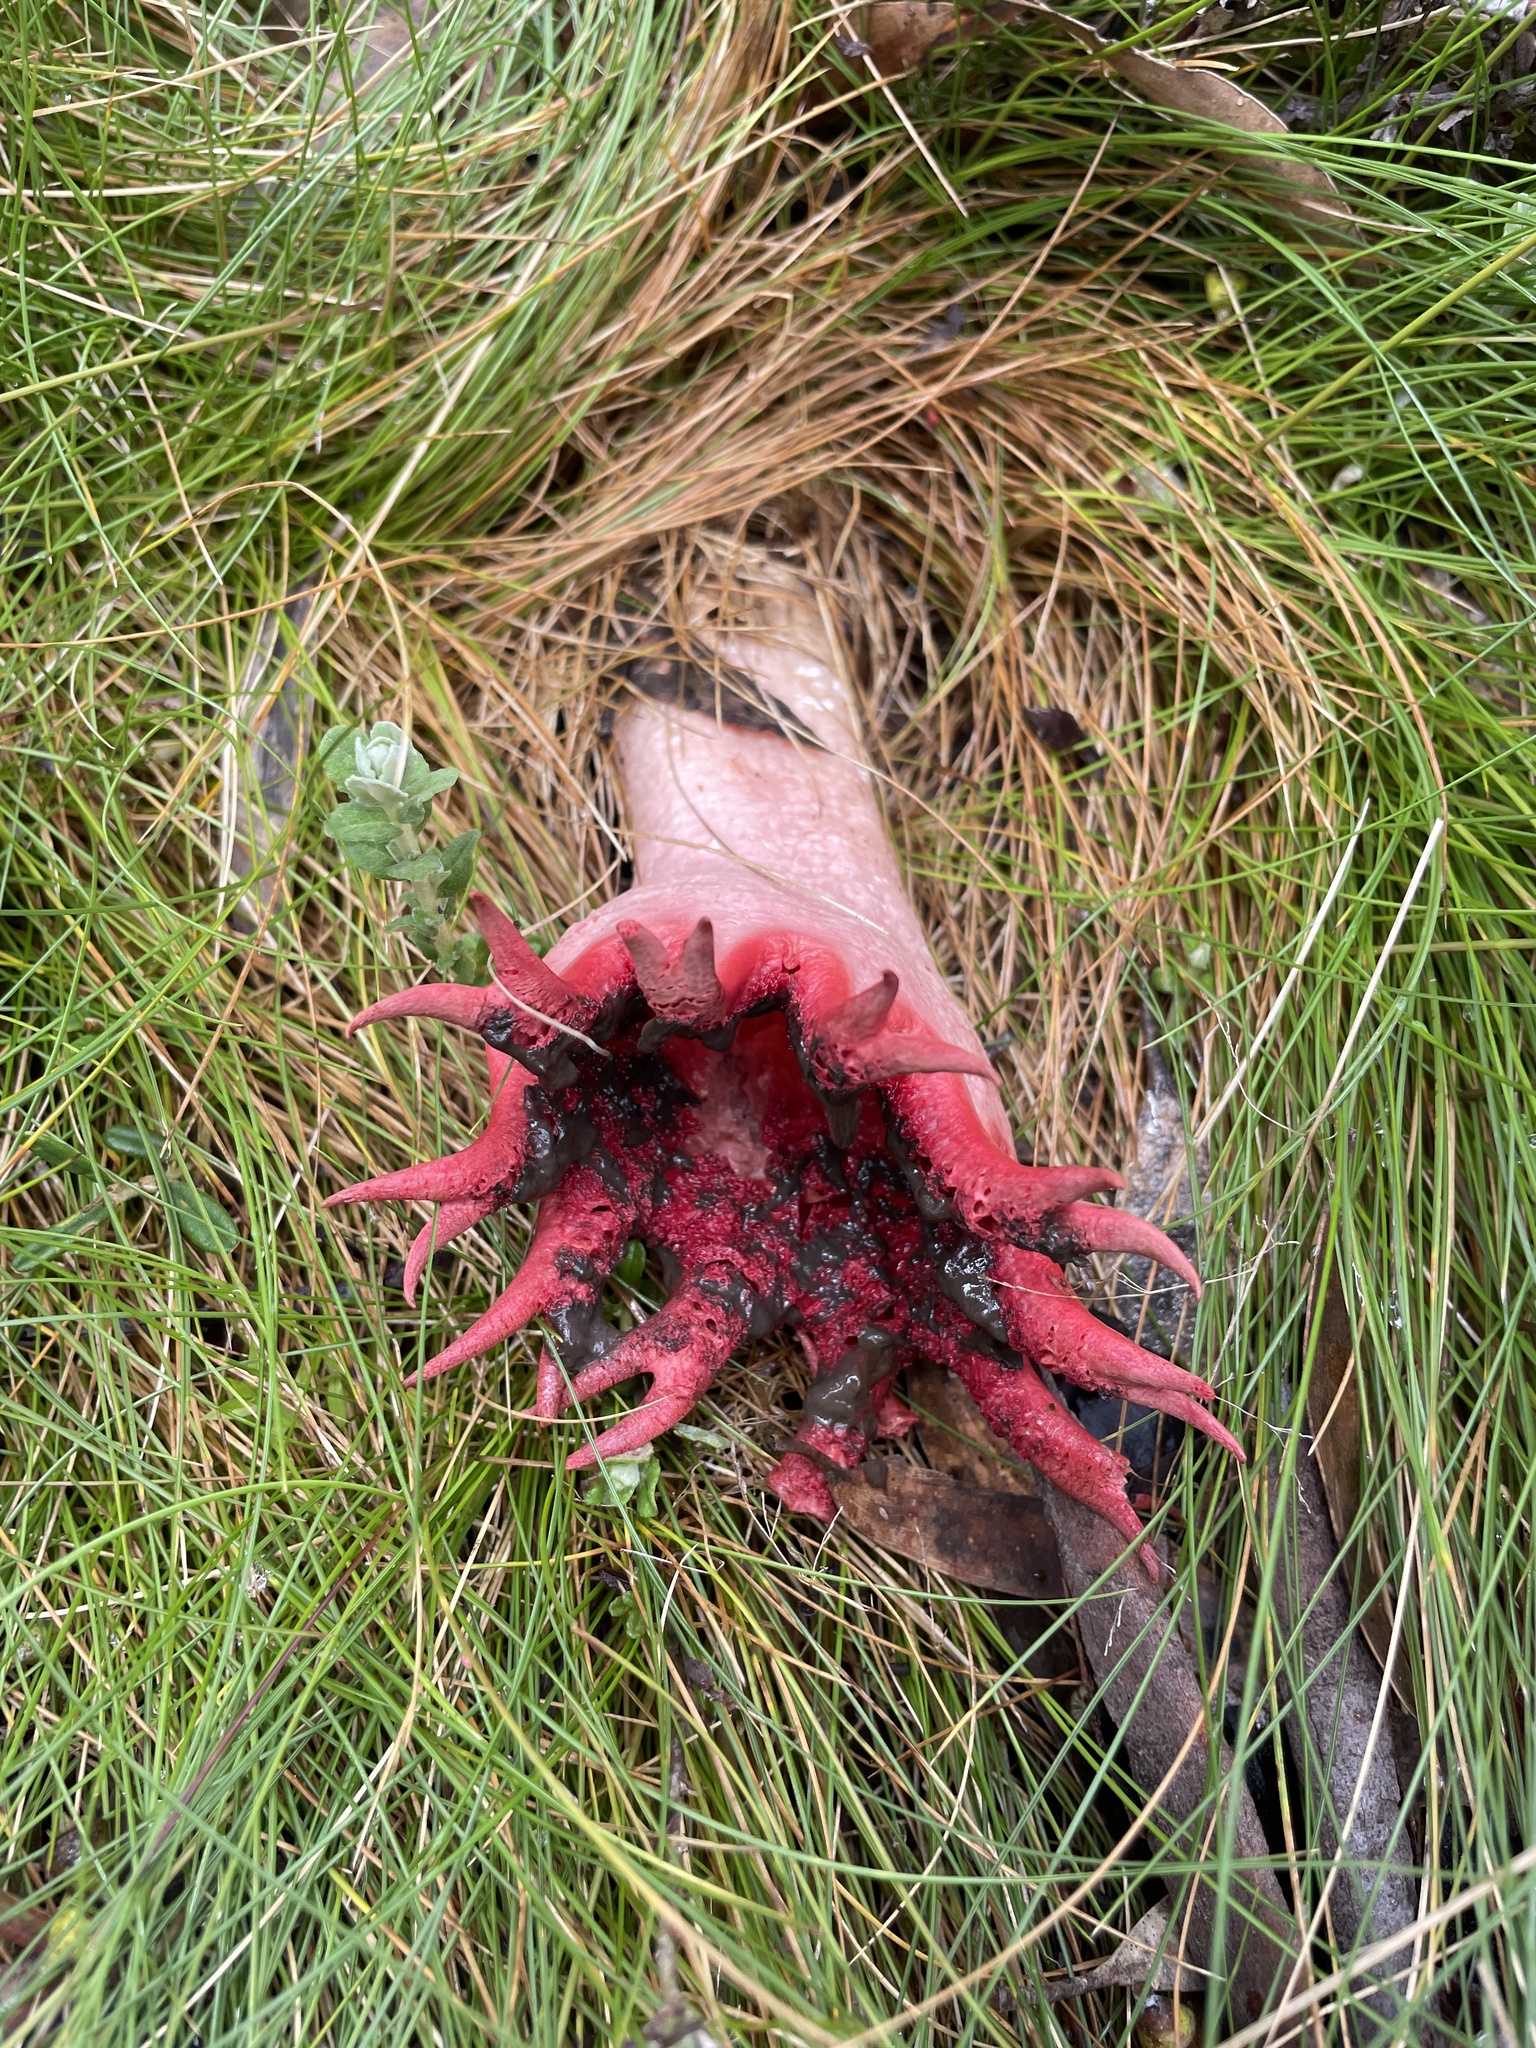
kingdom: Fungi
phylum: Basidiomycota
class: Agaricomycetes
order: Phallales
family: Phallaceae
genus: Aseroe
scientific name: Aseroe rubra
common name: Starfish fungus
